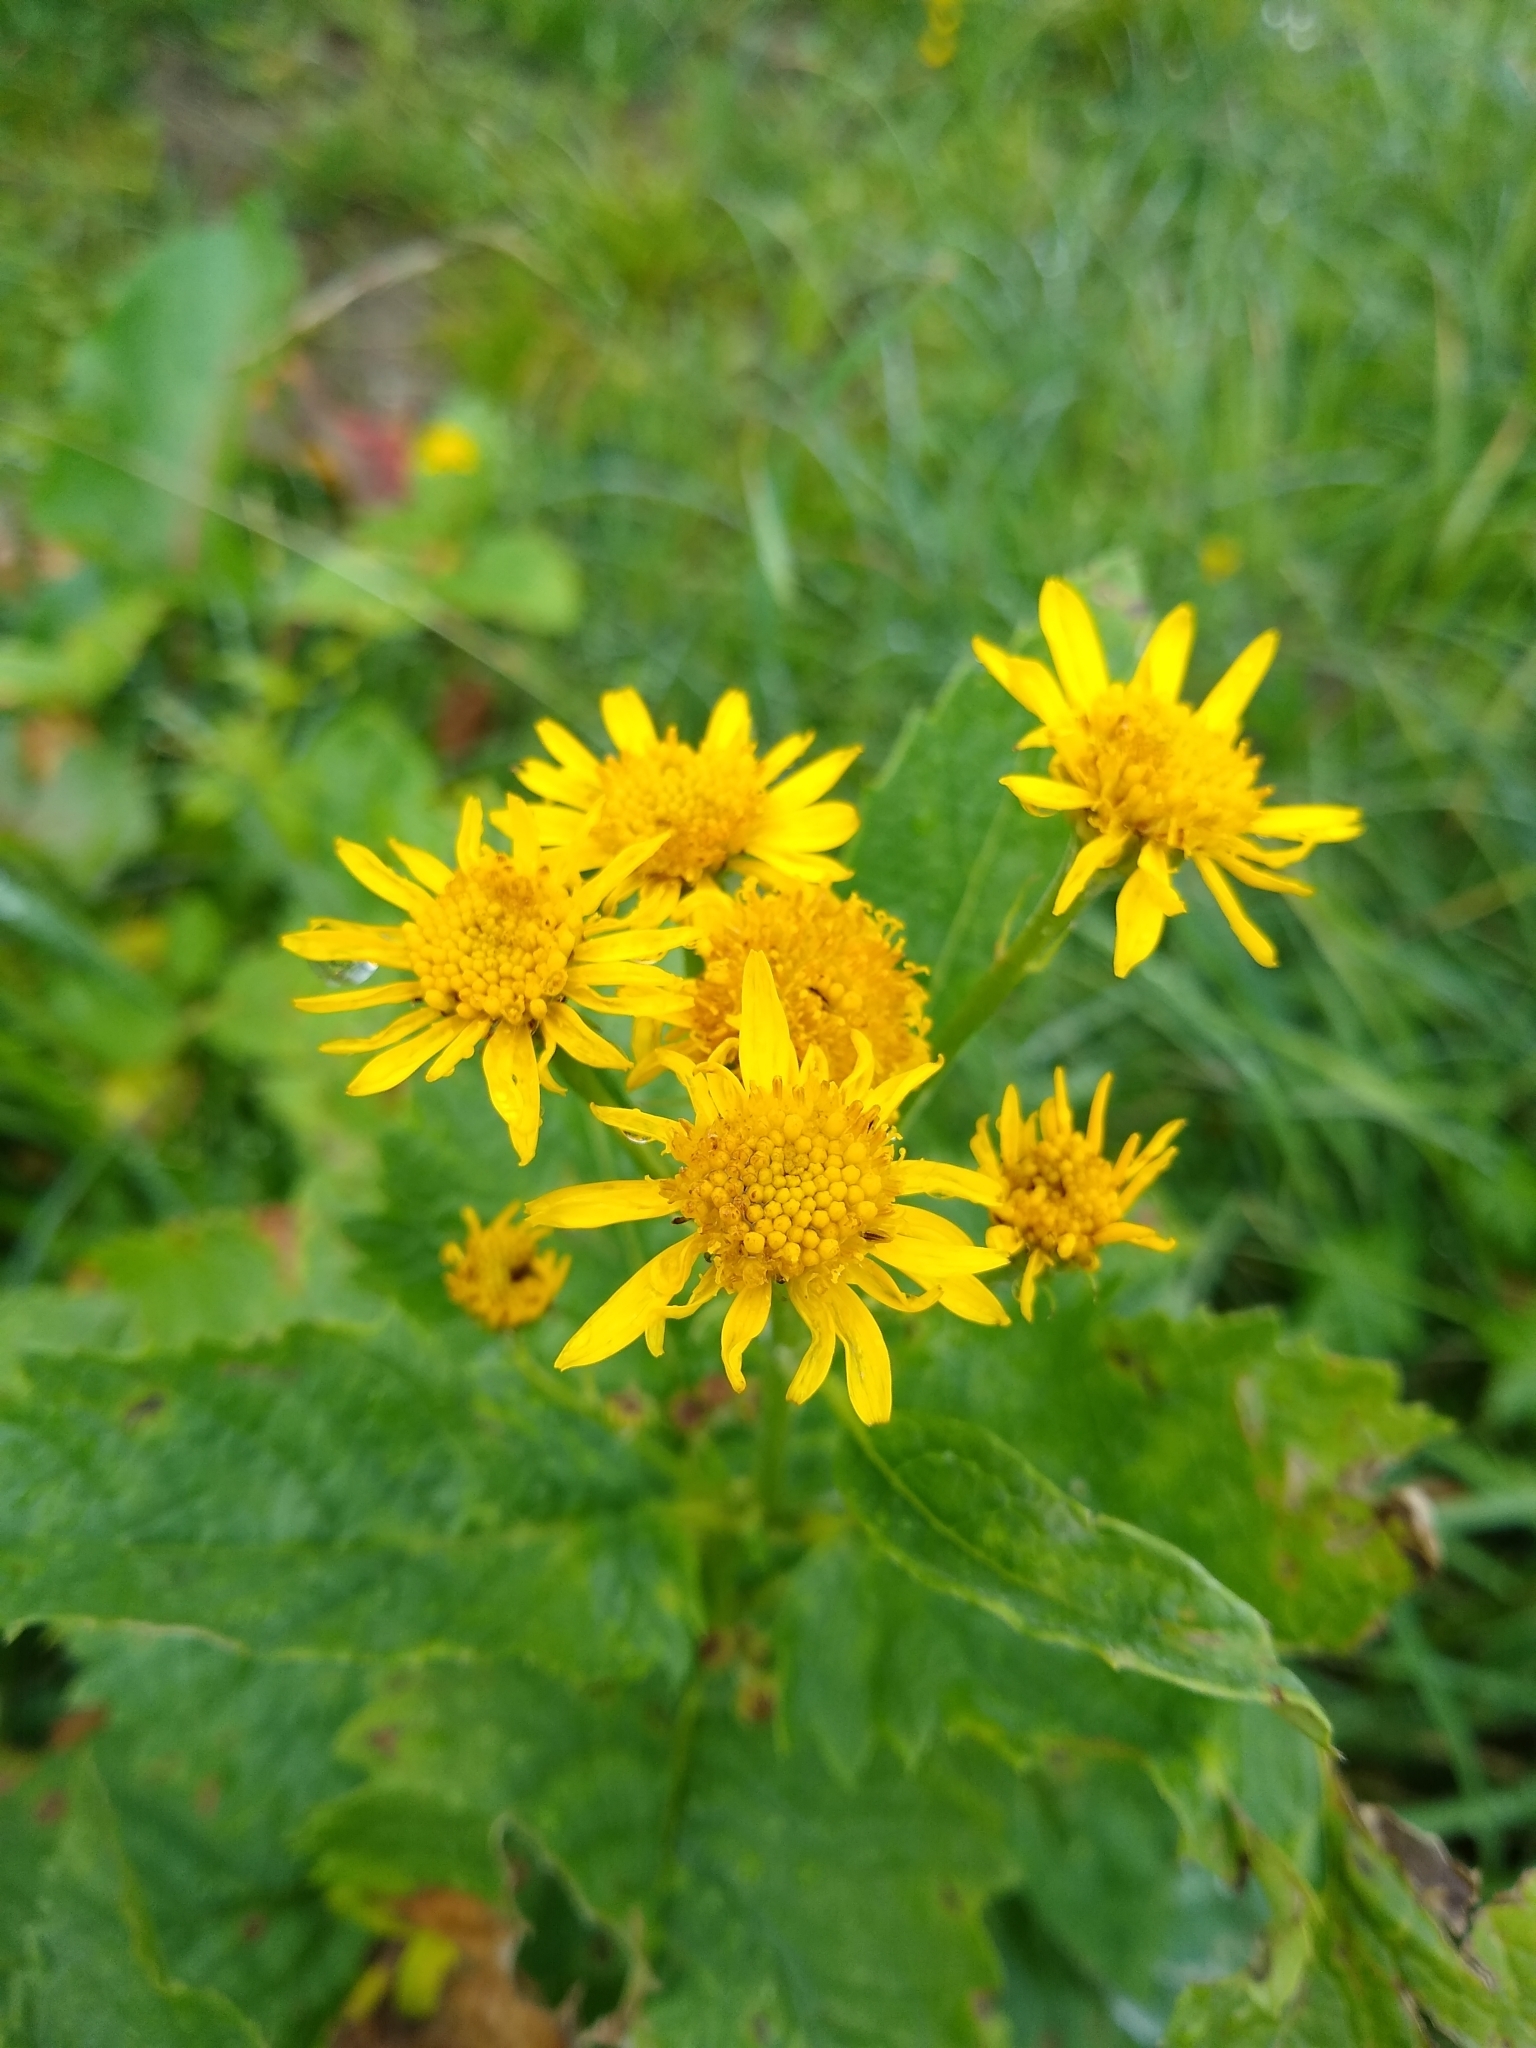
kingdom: Plantae
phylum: Tracheophyta
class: Magnoliopsida
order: Asterales
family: Asteraceae
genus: Jacobaea
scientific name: Jacobaea alpina
